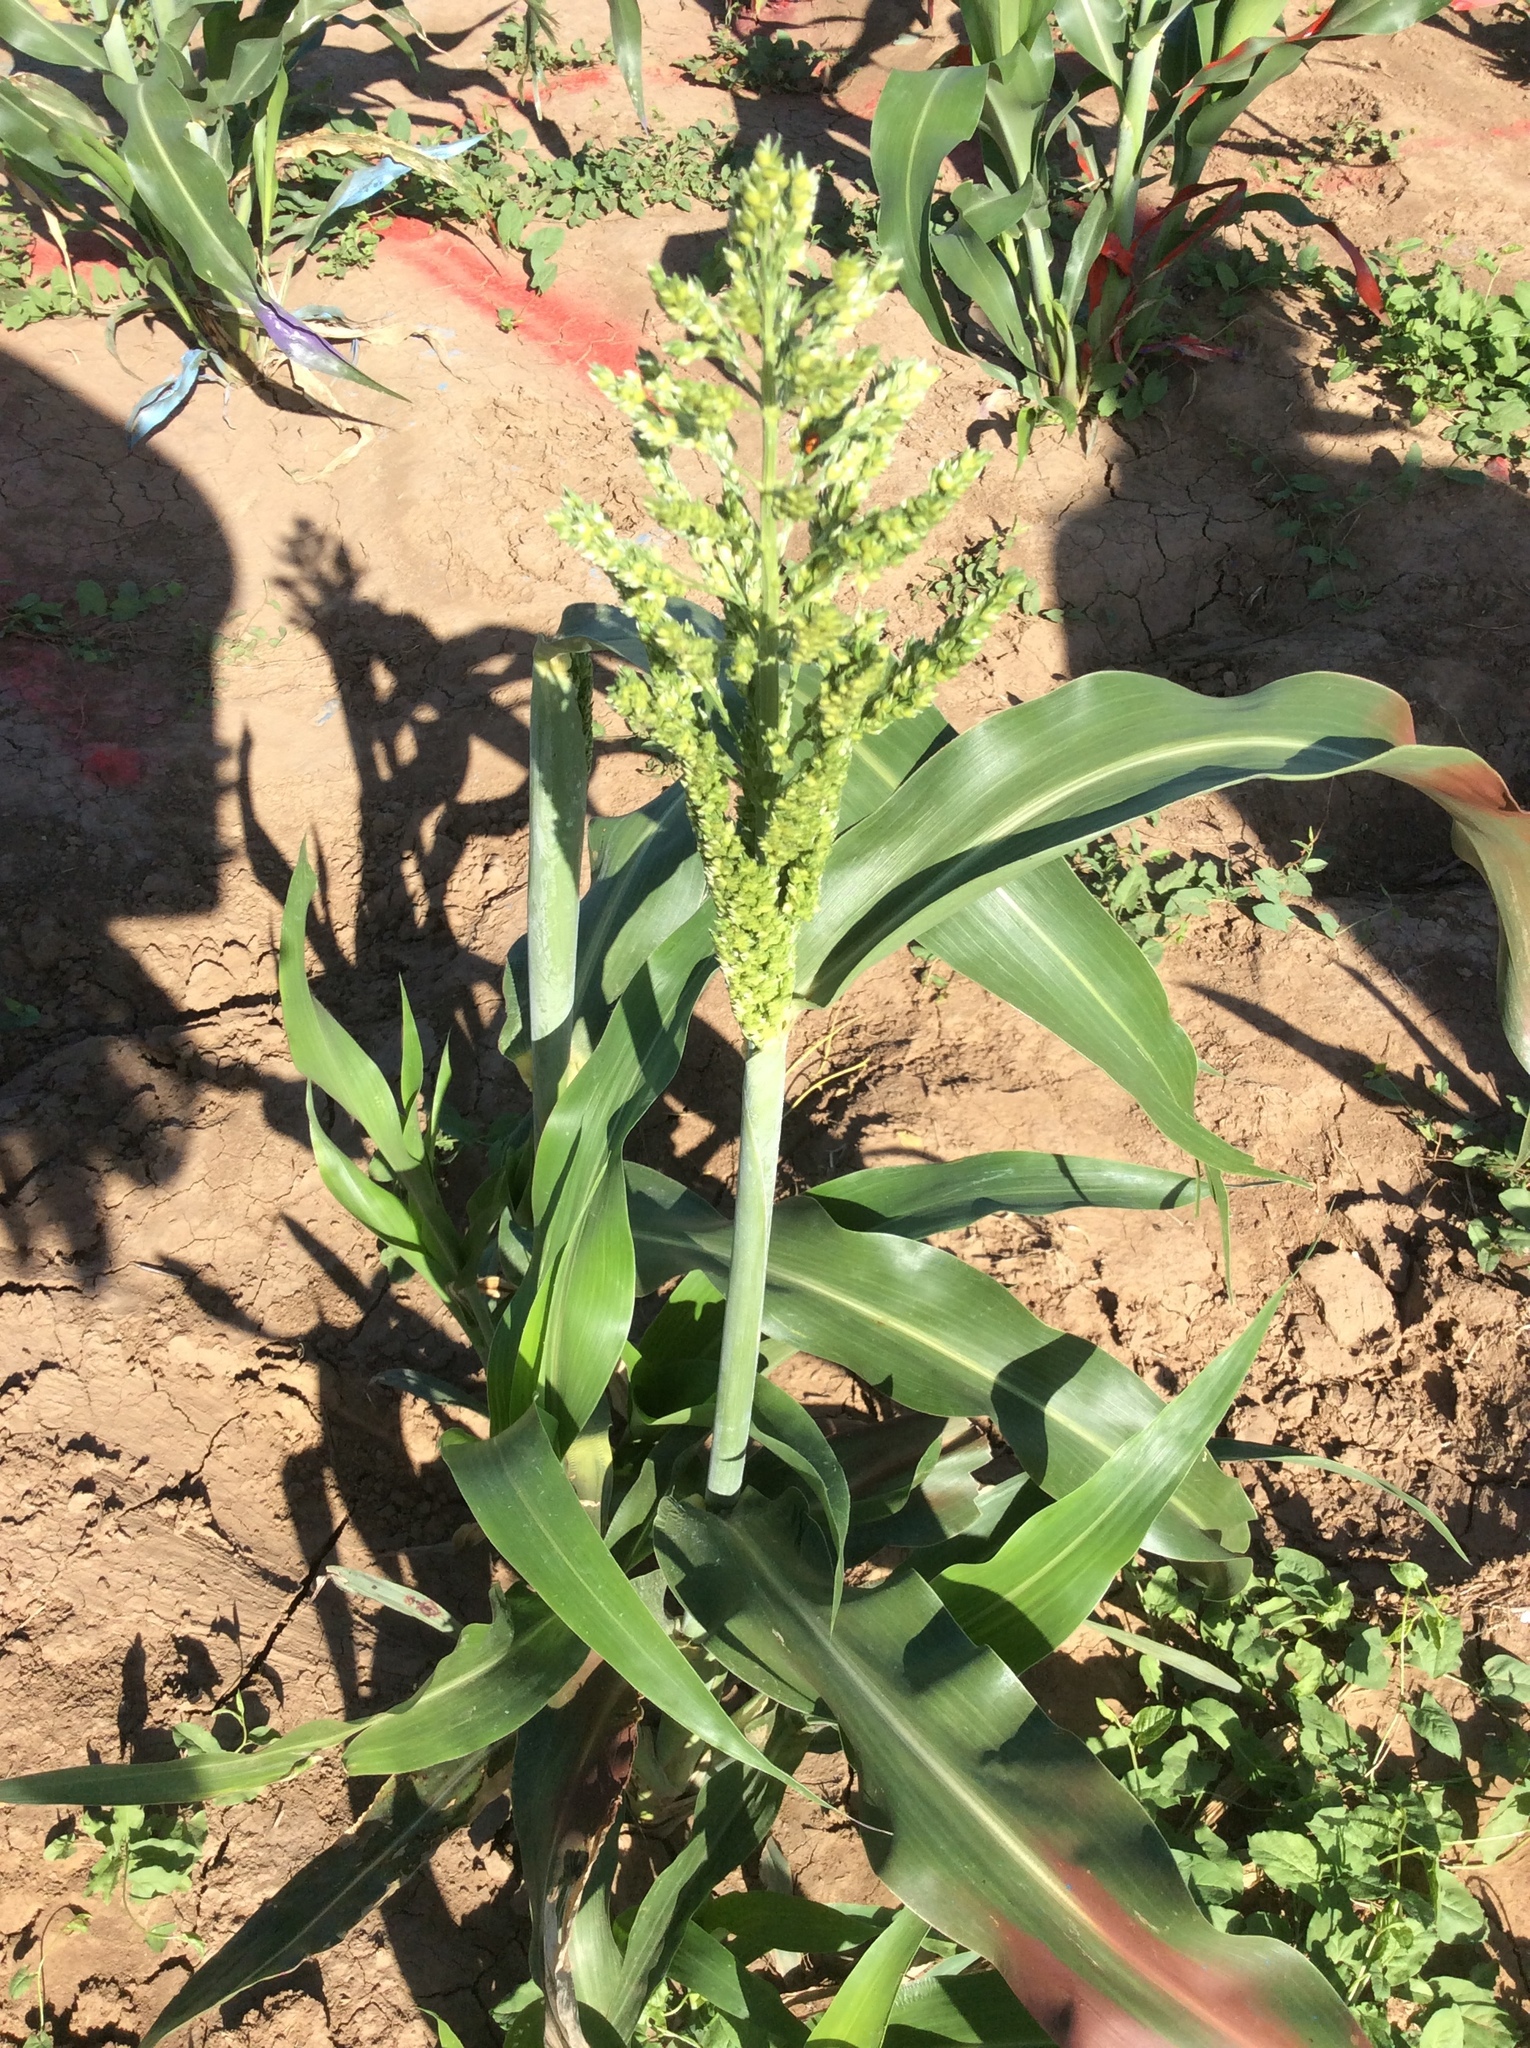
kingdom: Plantae
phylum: Tracheophyta
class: Liliopsida
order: Poales
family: Poaceae
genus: Sorghum
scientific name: Sorghum bicolor
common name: Sorghum
